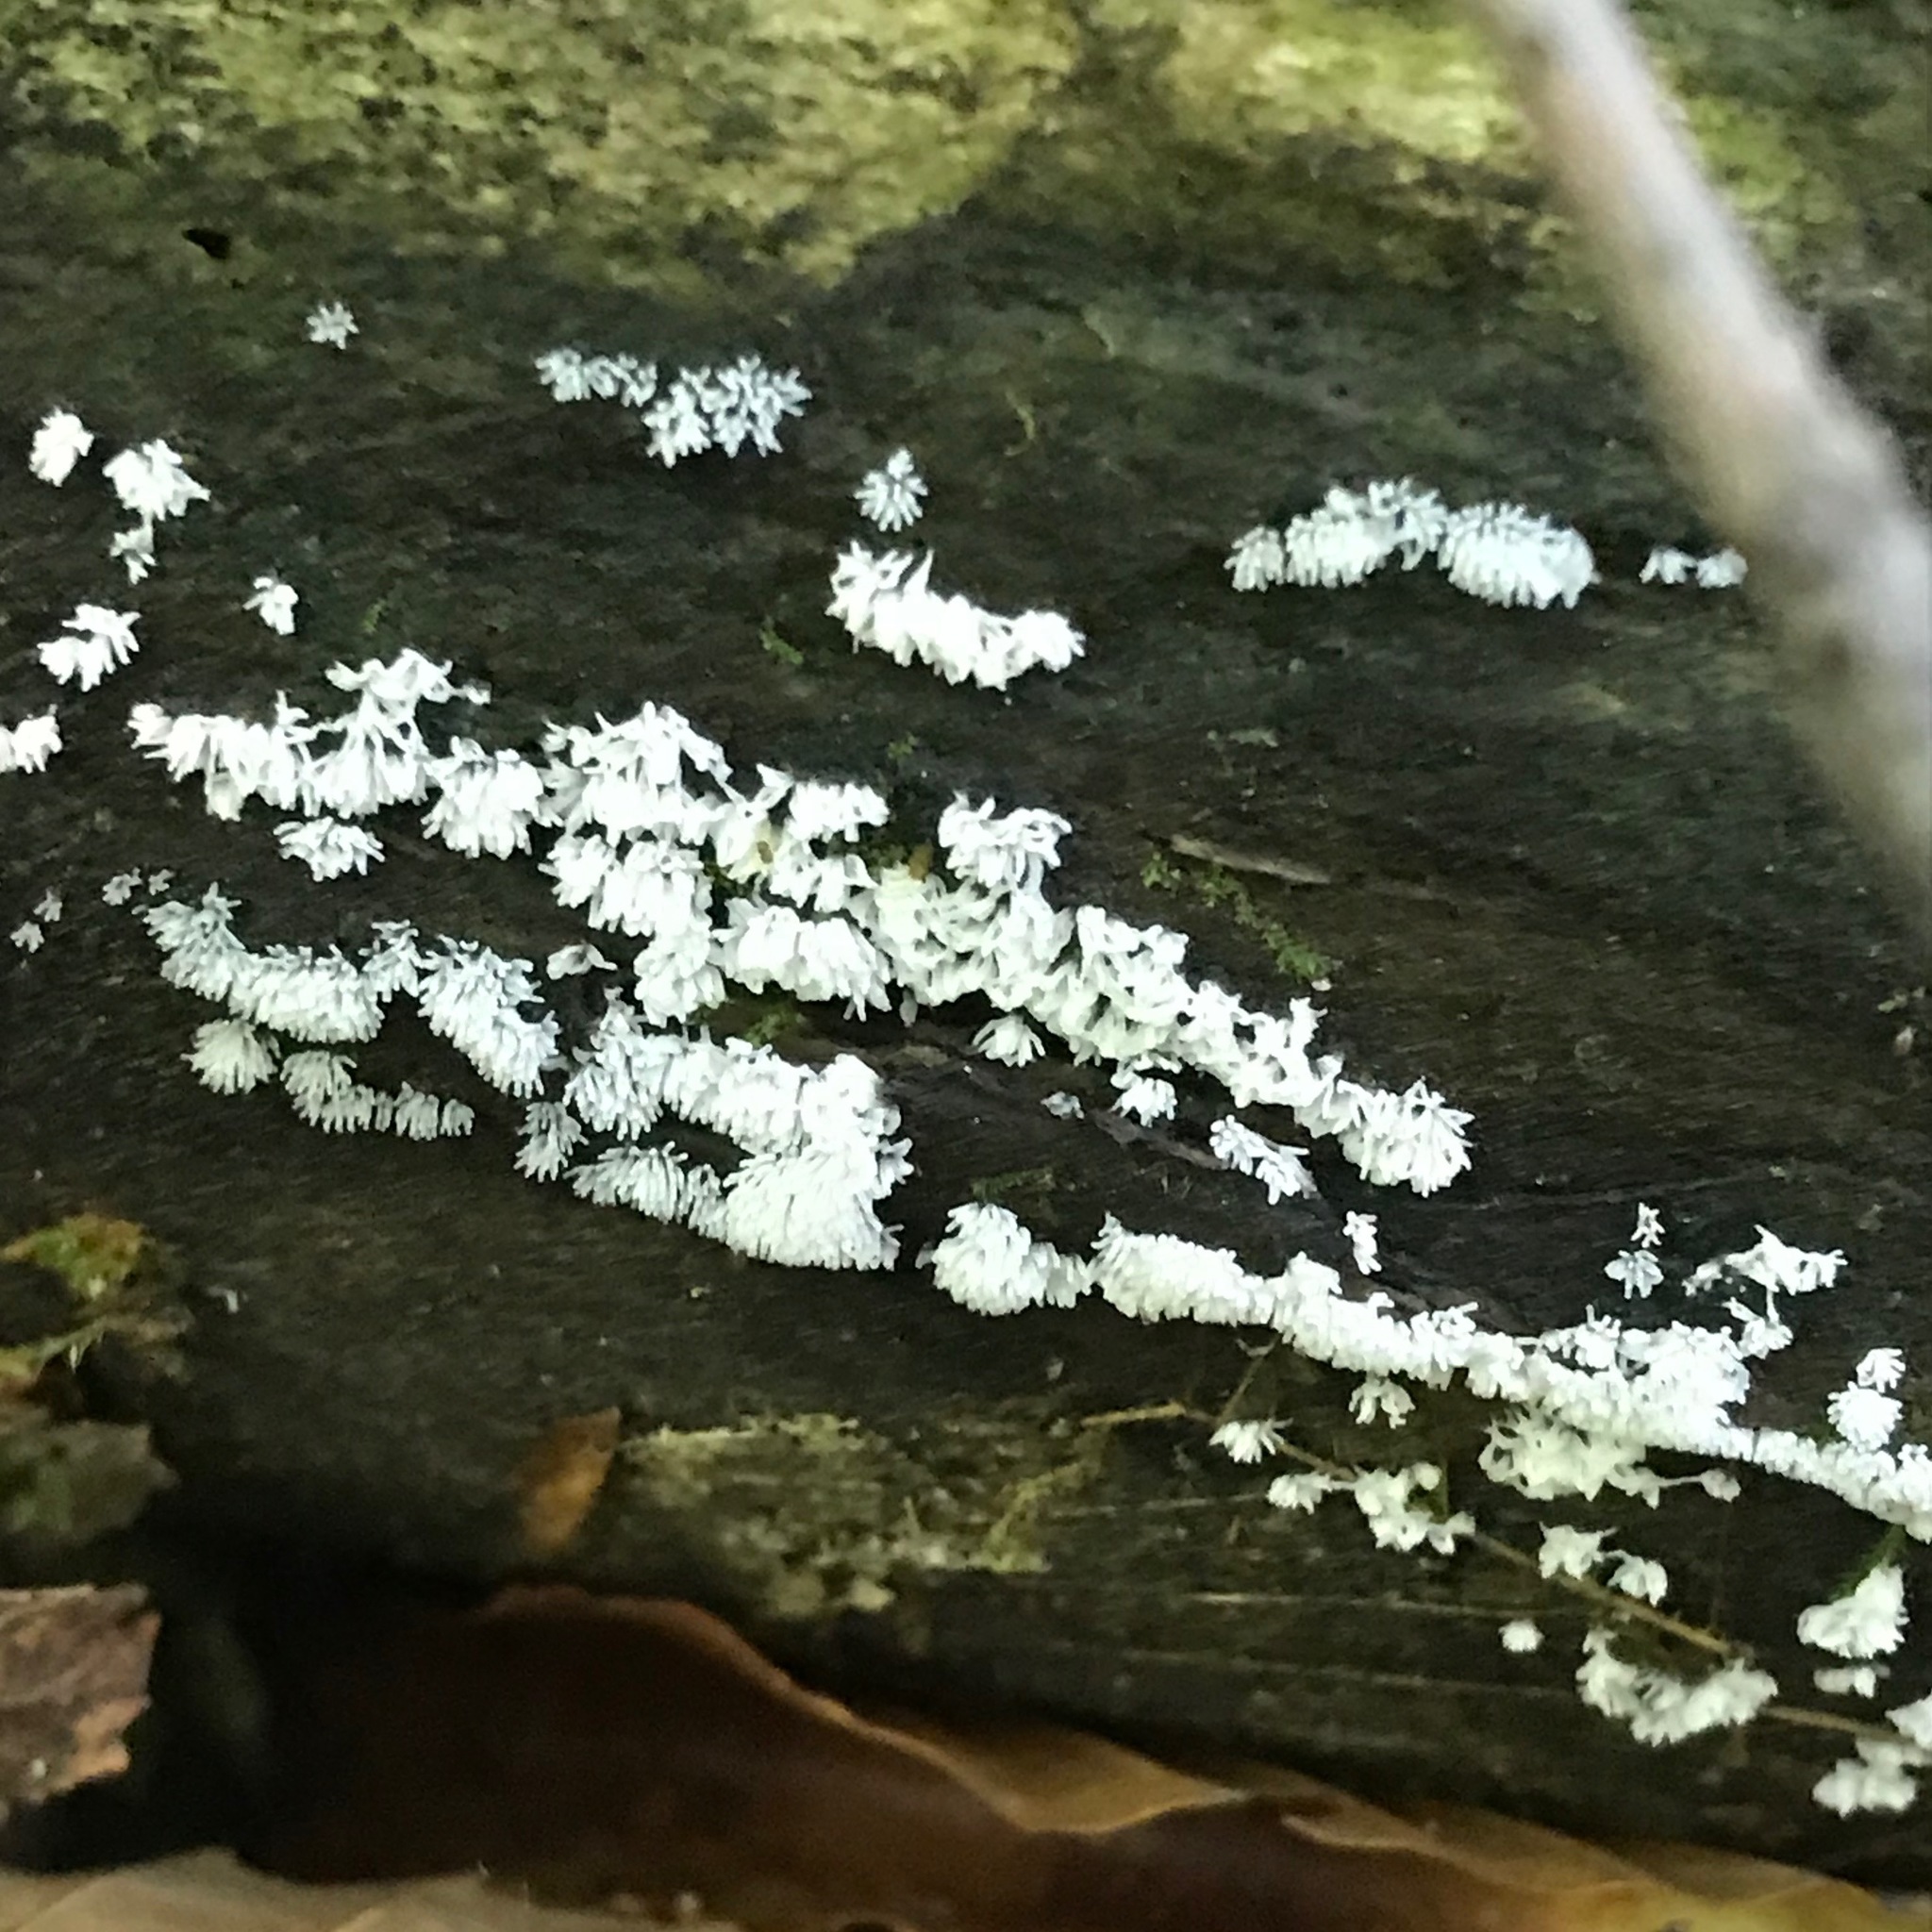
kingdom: Protozoa
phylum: Mycetozoa
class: Protosteliomycetes
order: Ceratiomyxales
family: Ceratiomyxaceae
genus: Ceratiomyxa
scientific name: Ceratiomyxa fruticulosa
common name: Honeycomb coral slime mold
